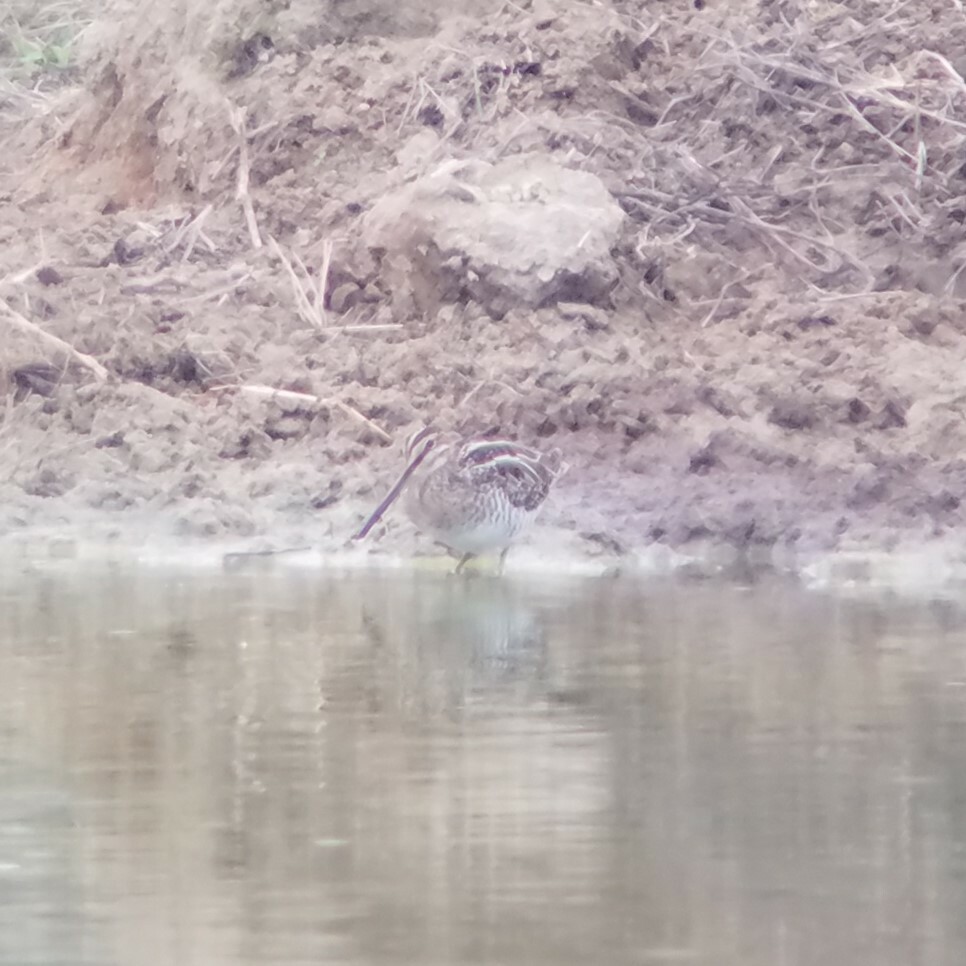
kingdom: Animalia
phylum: Chordata
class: Aves
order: Charadriiformes
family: Scolopacidae
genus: Gallinago
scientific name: Gallinago delicata
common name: Wilson's snipe
